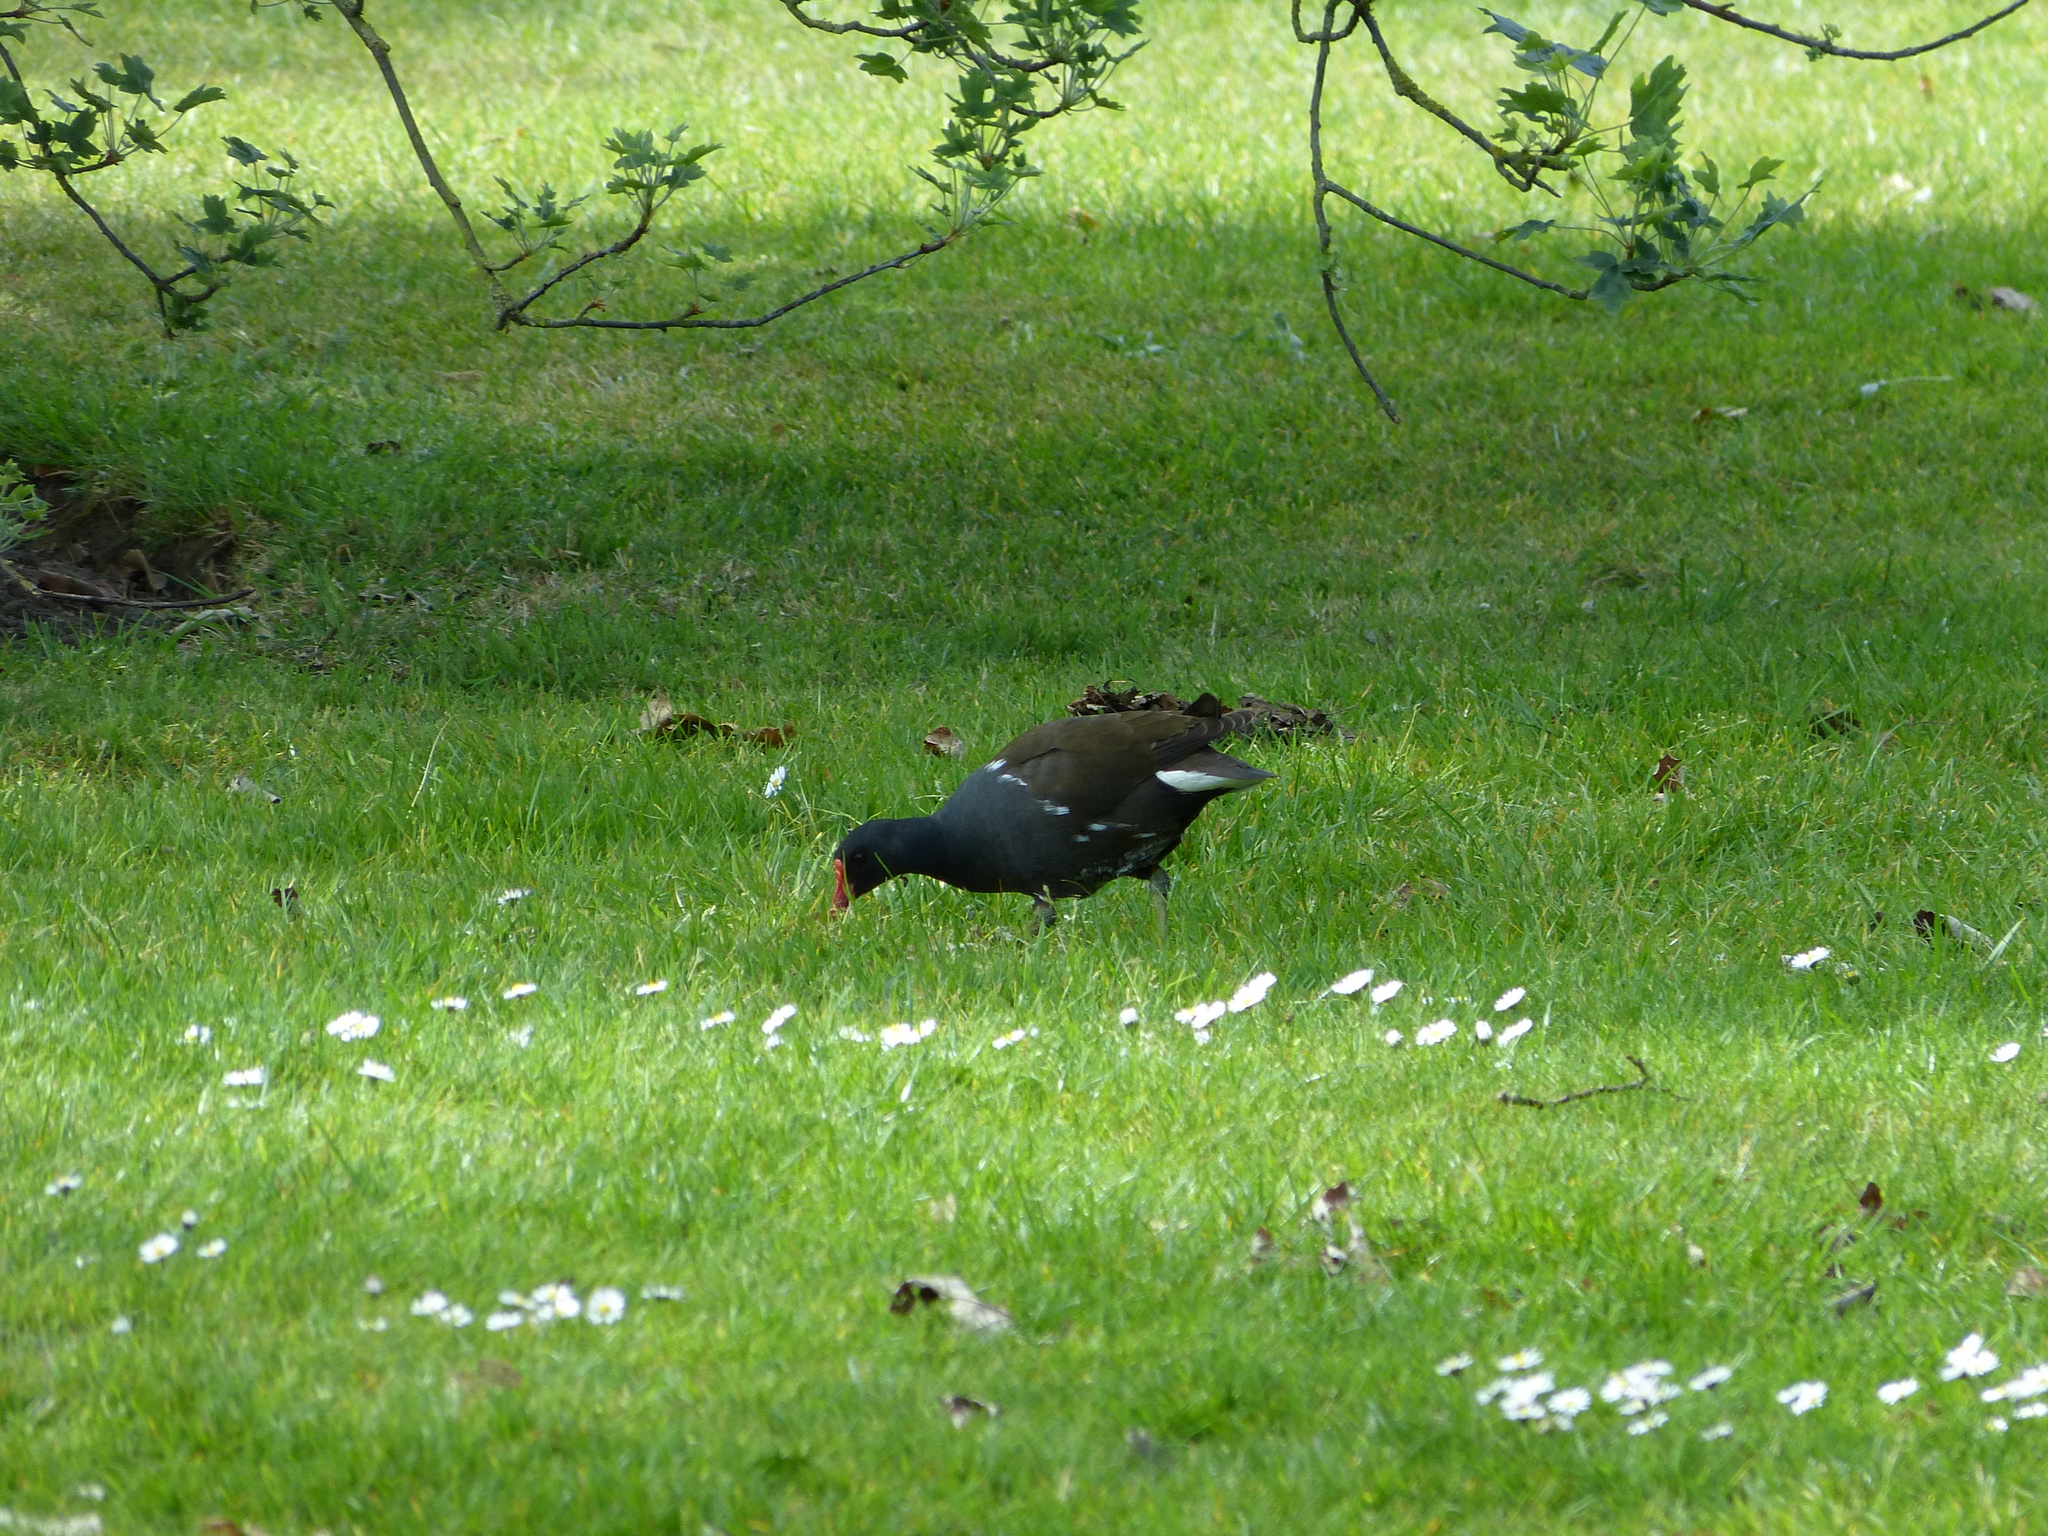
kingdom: Animalia
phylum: Chordata
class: Aves
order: Gruiformes
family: Rallidae
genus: Gallinula
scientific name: Gallinula chloropus
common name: Common moorhen
